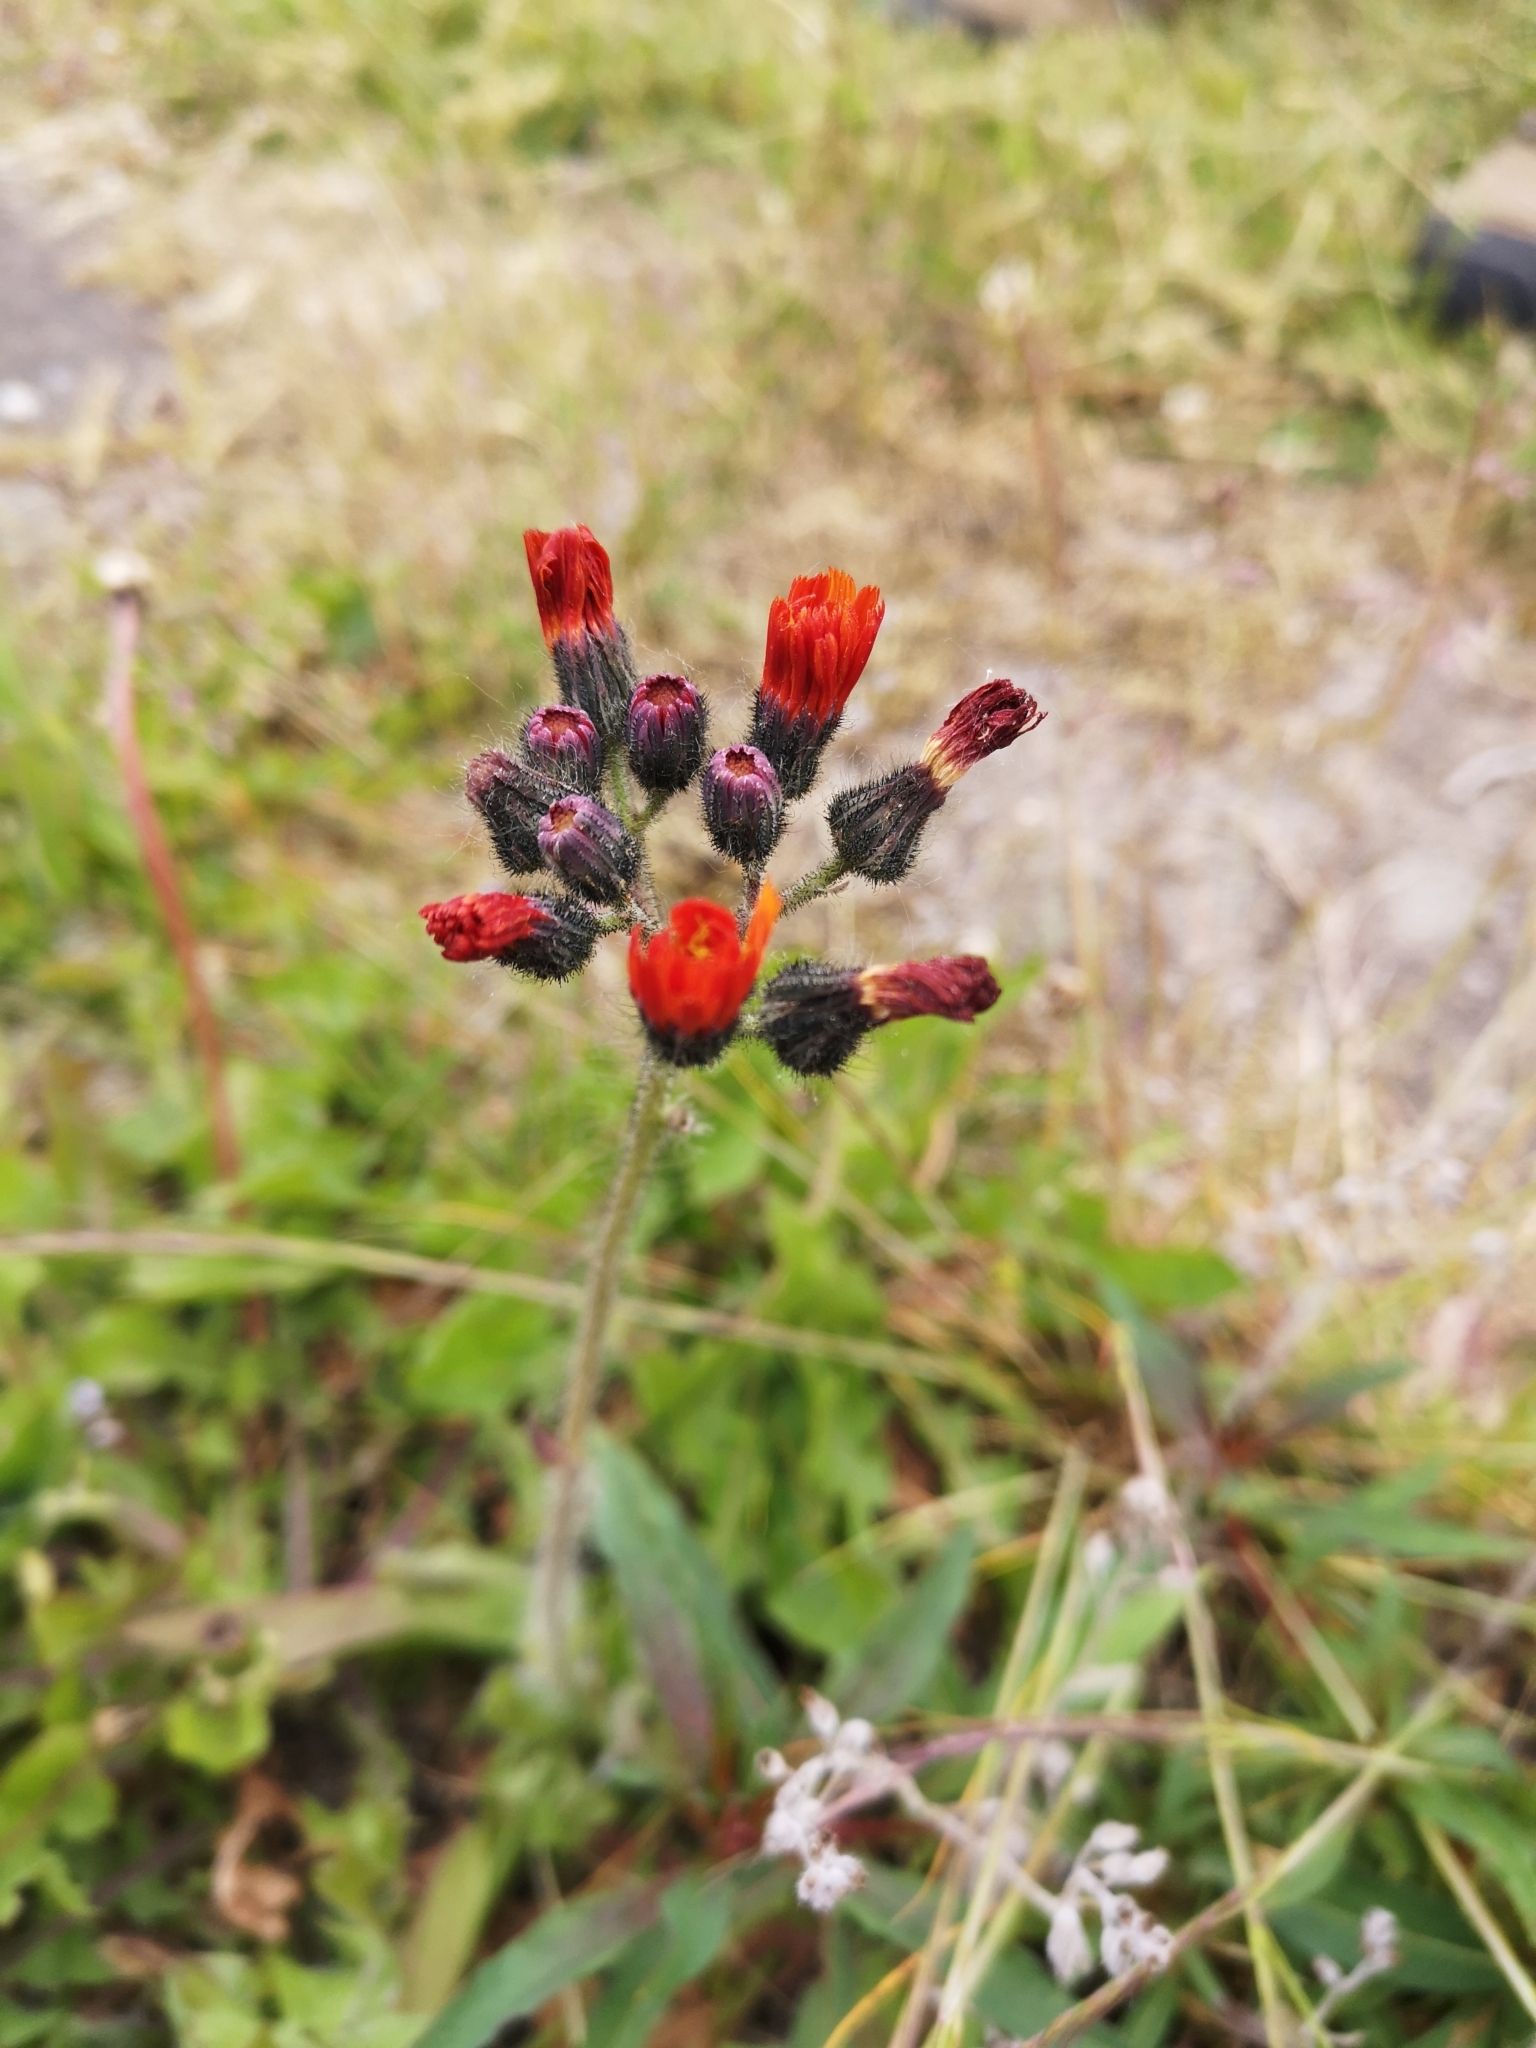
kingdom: Plantae
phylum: Tracheophyta
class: Magnoliopsida
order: Asterales
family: Asteraceae
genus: Pilosella
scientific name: Pilosella aurantiaca
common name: Fox-and-cubs
